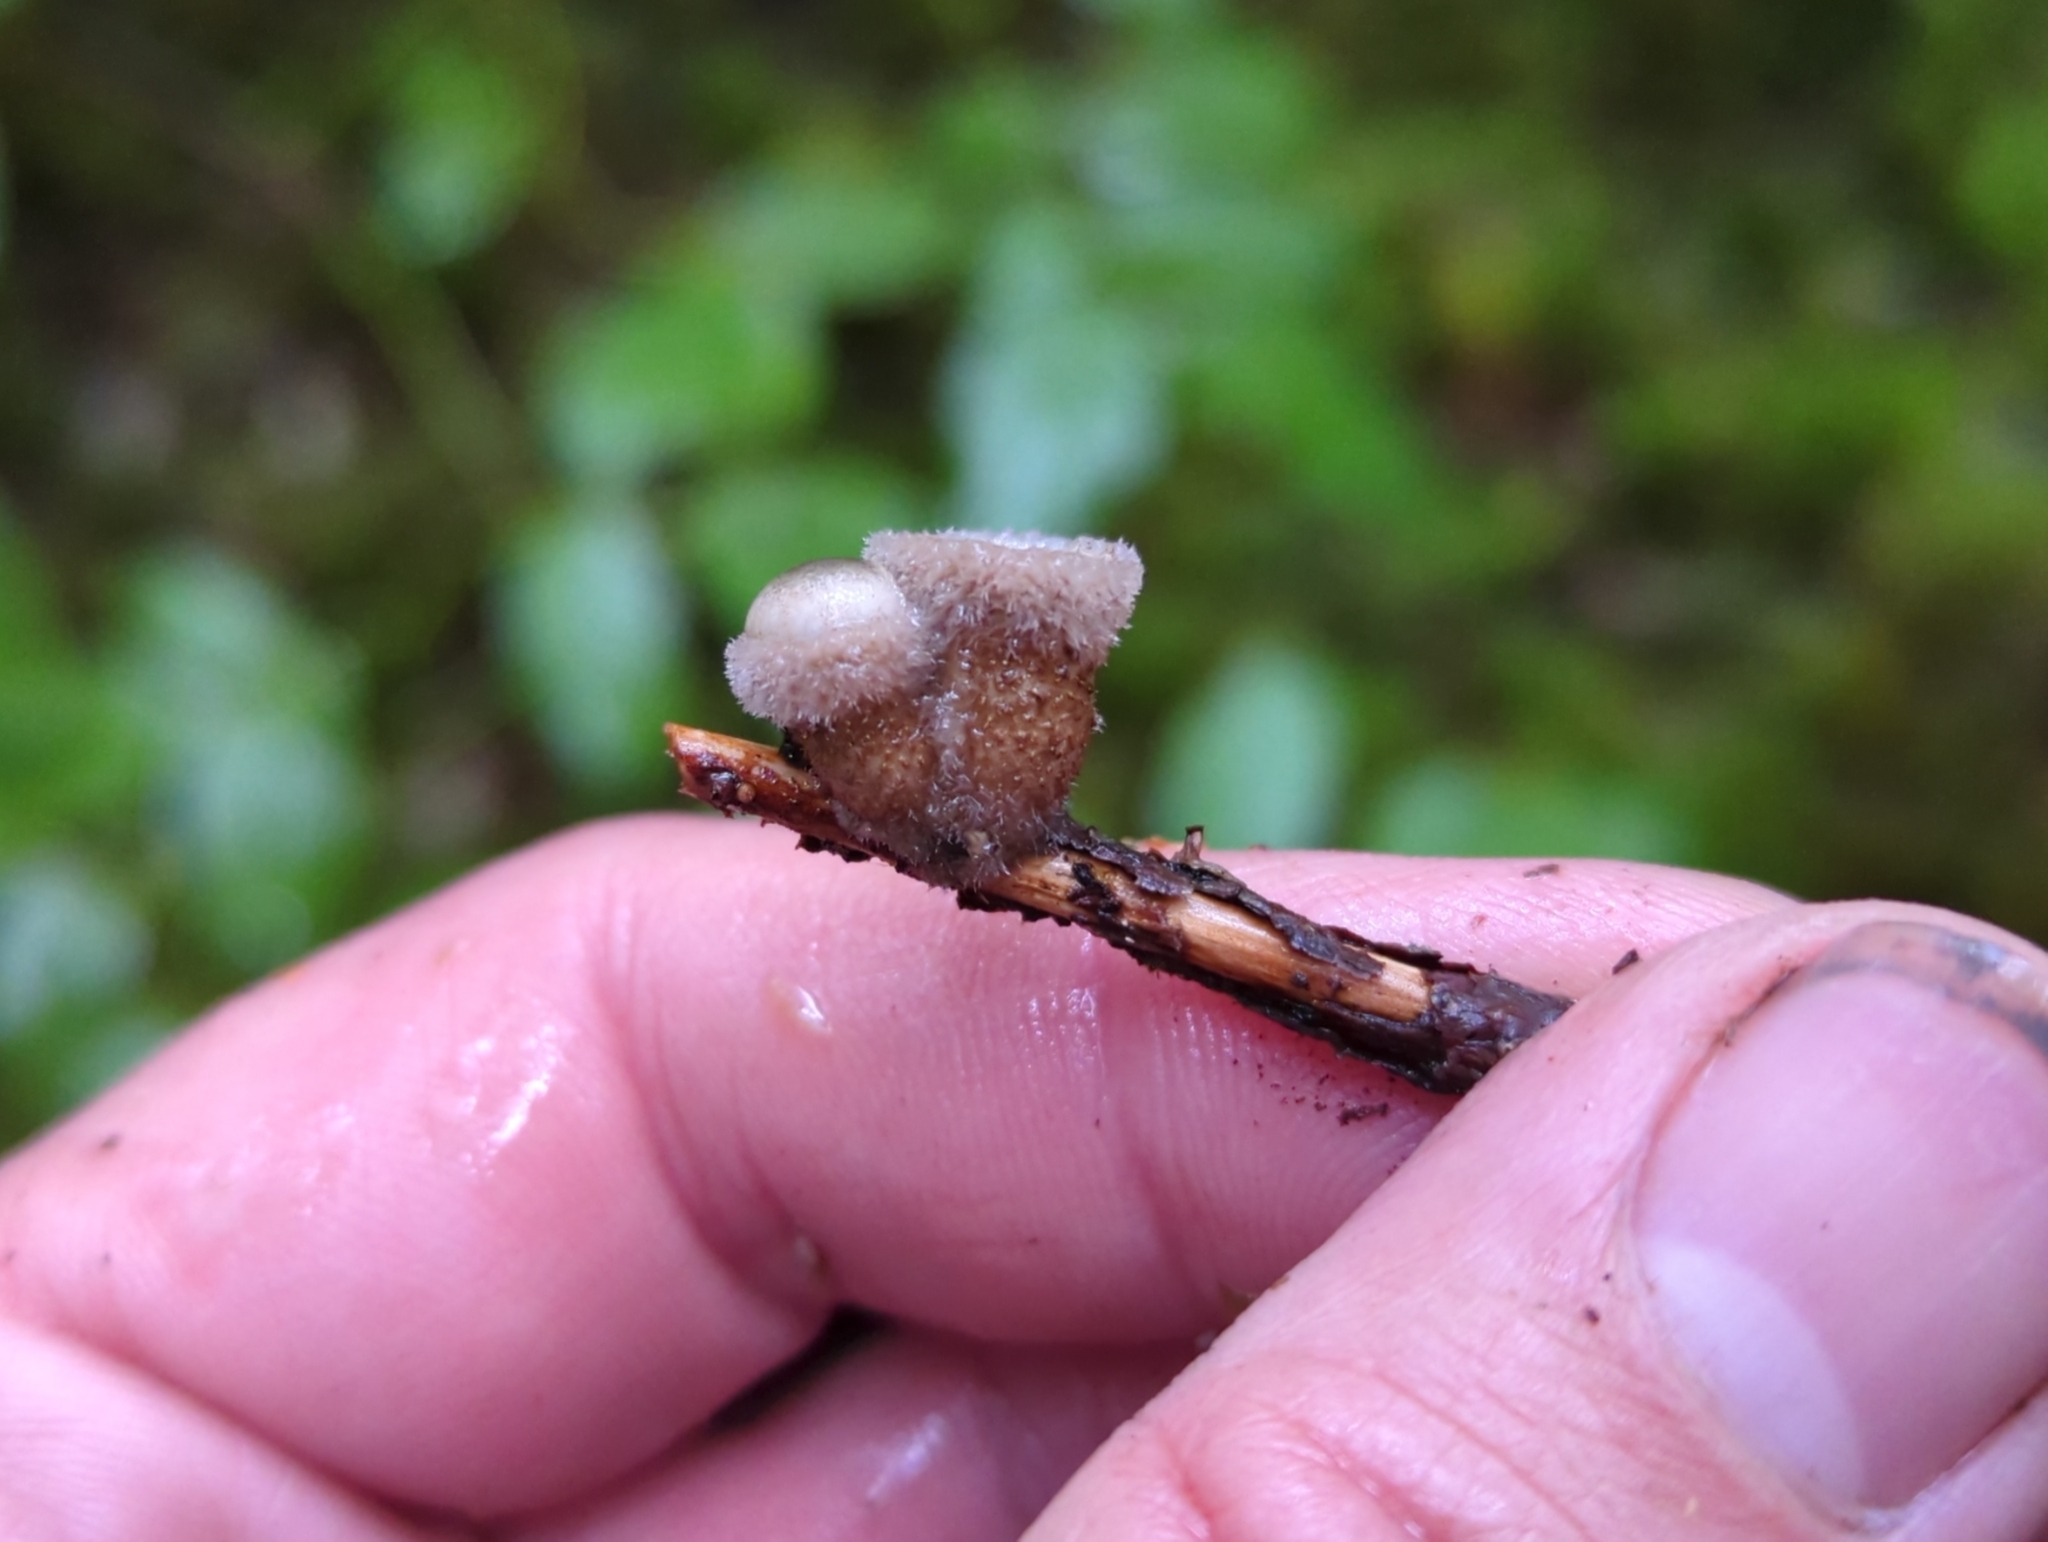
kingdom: Fungi
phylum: Basidiomycota
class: Agaricomycetes
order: Agaricales
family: Agaricaceae
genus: Nidula
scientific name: Nidula candida
